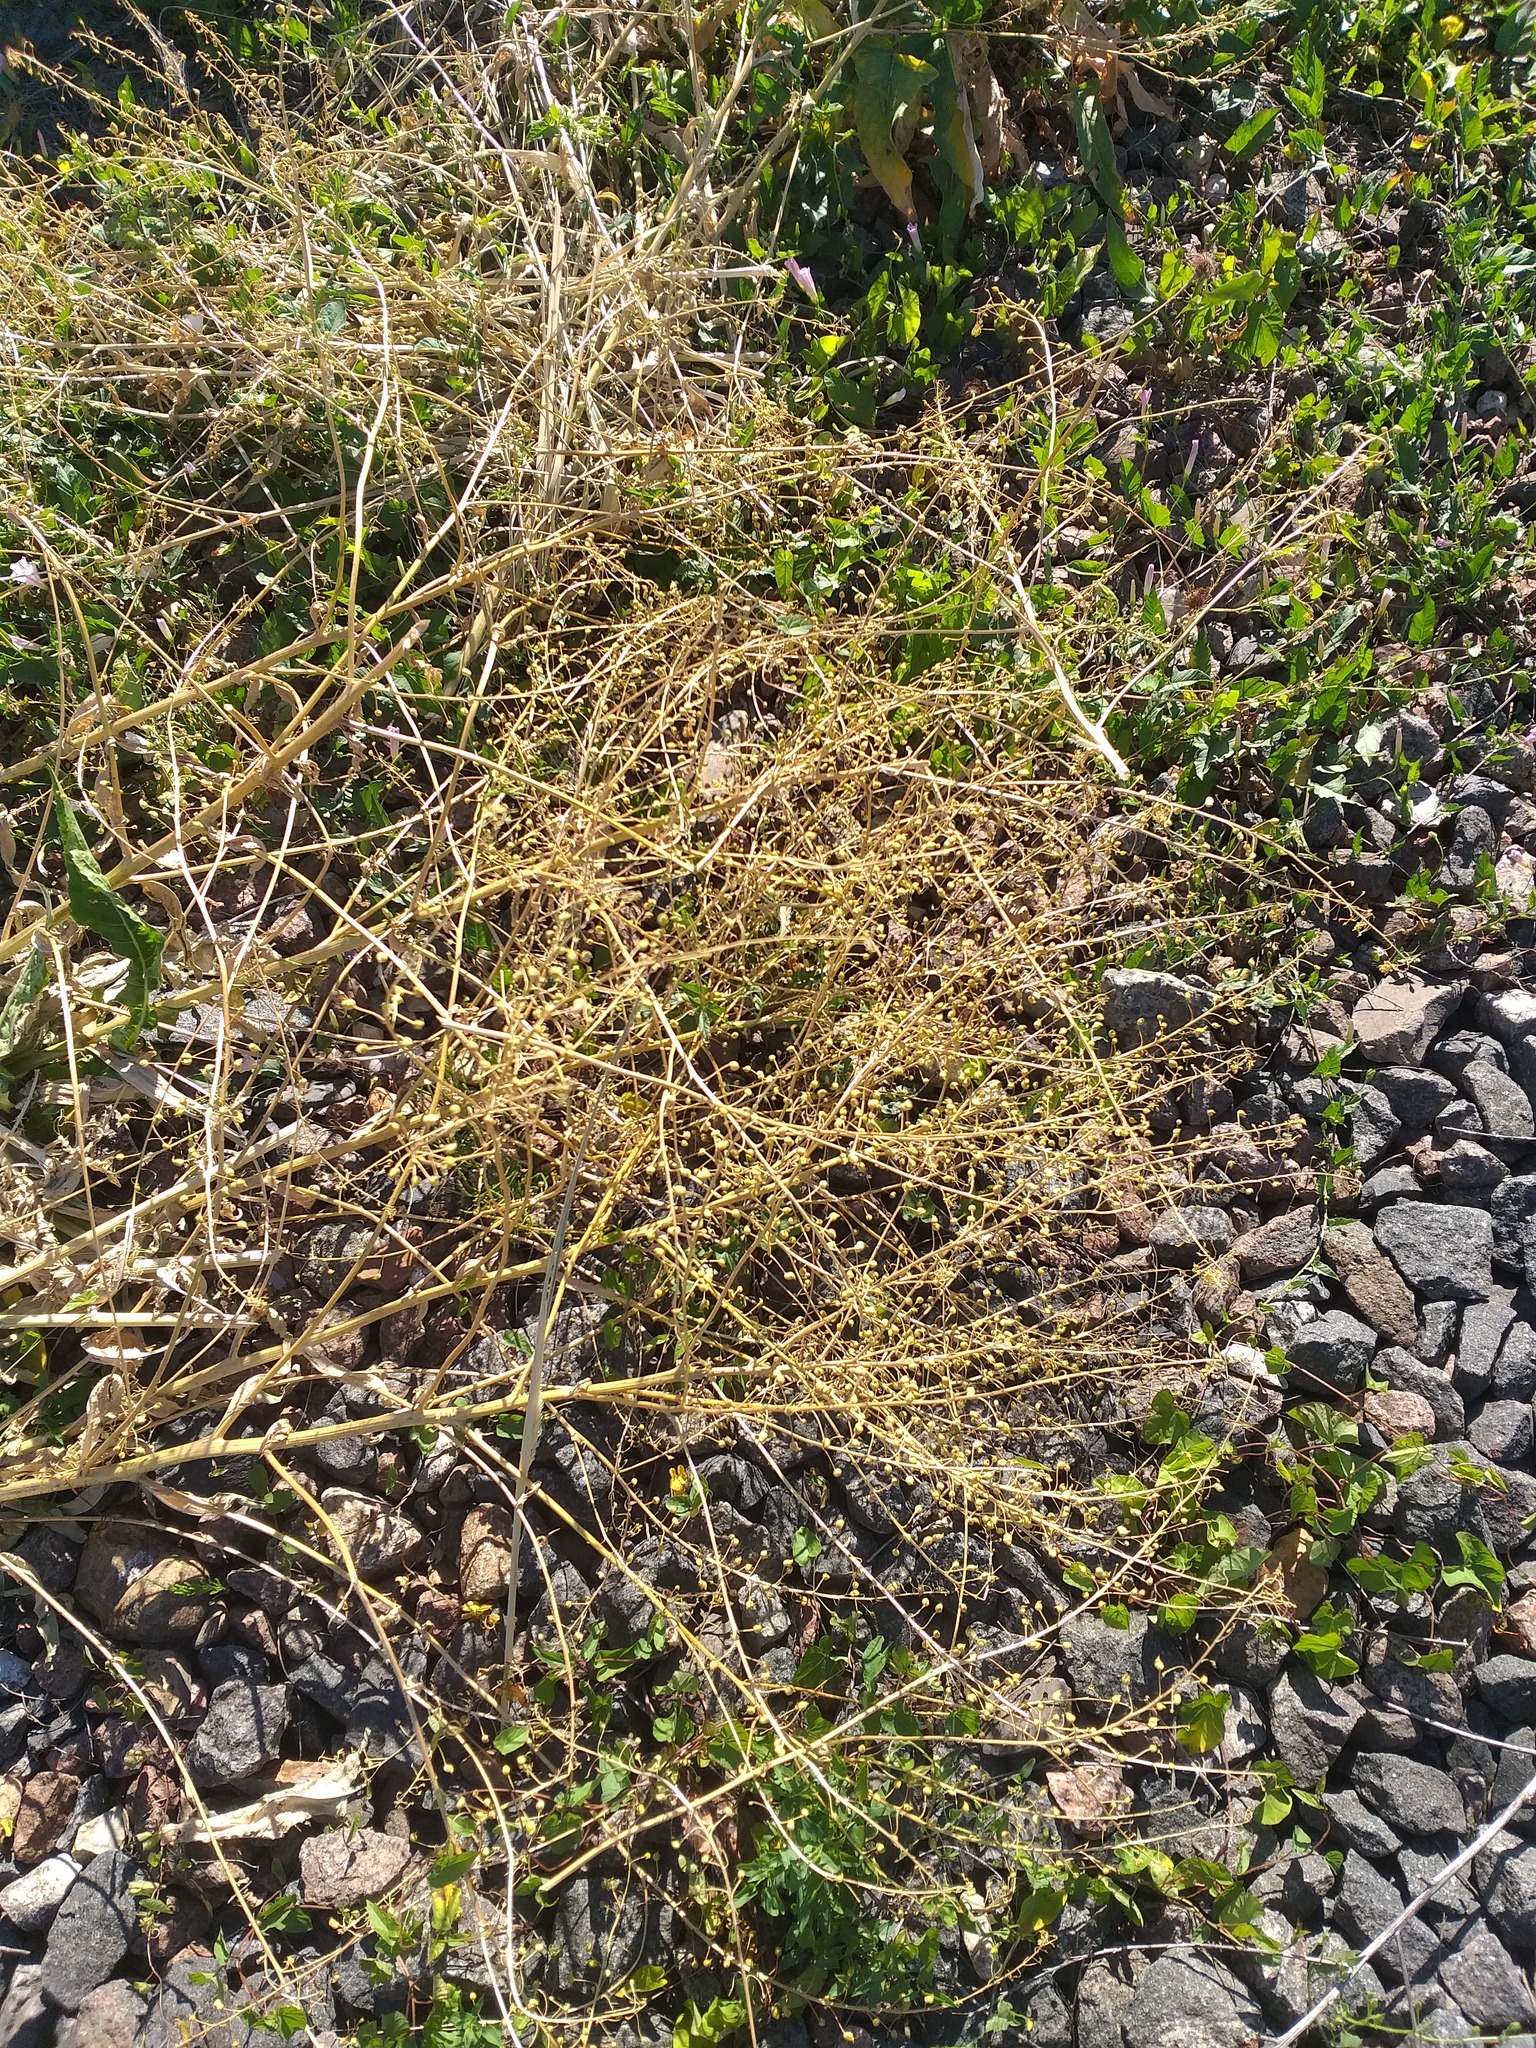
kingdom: Plantae
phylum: Tracheophyta
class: Magnoliopsida
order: Brassicales
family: Brassicaceae
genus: Bunias
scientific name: Bunias orientalis
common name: Warty-cabbage
